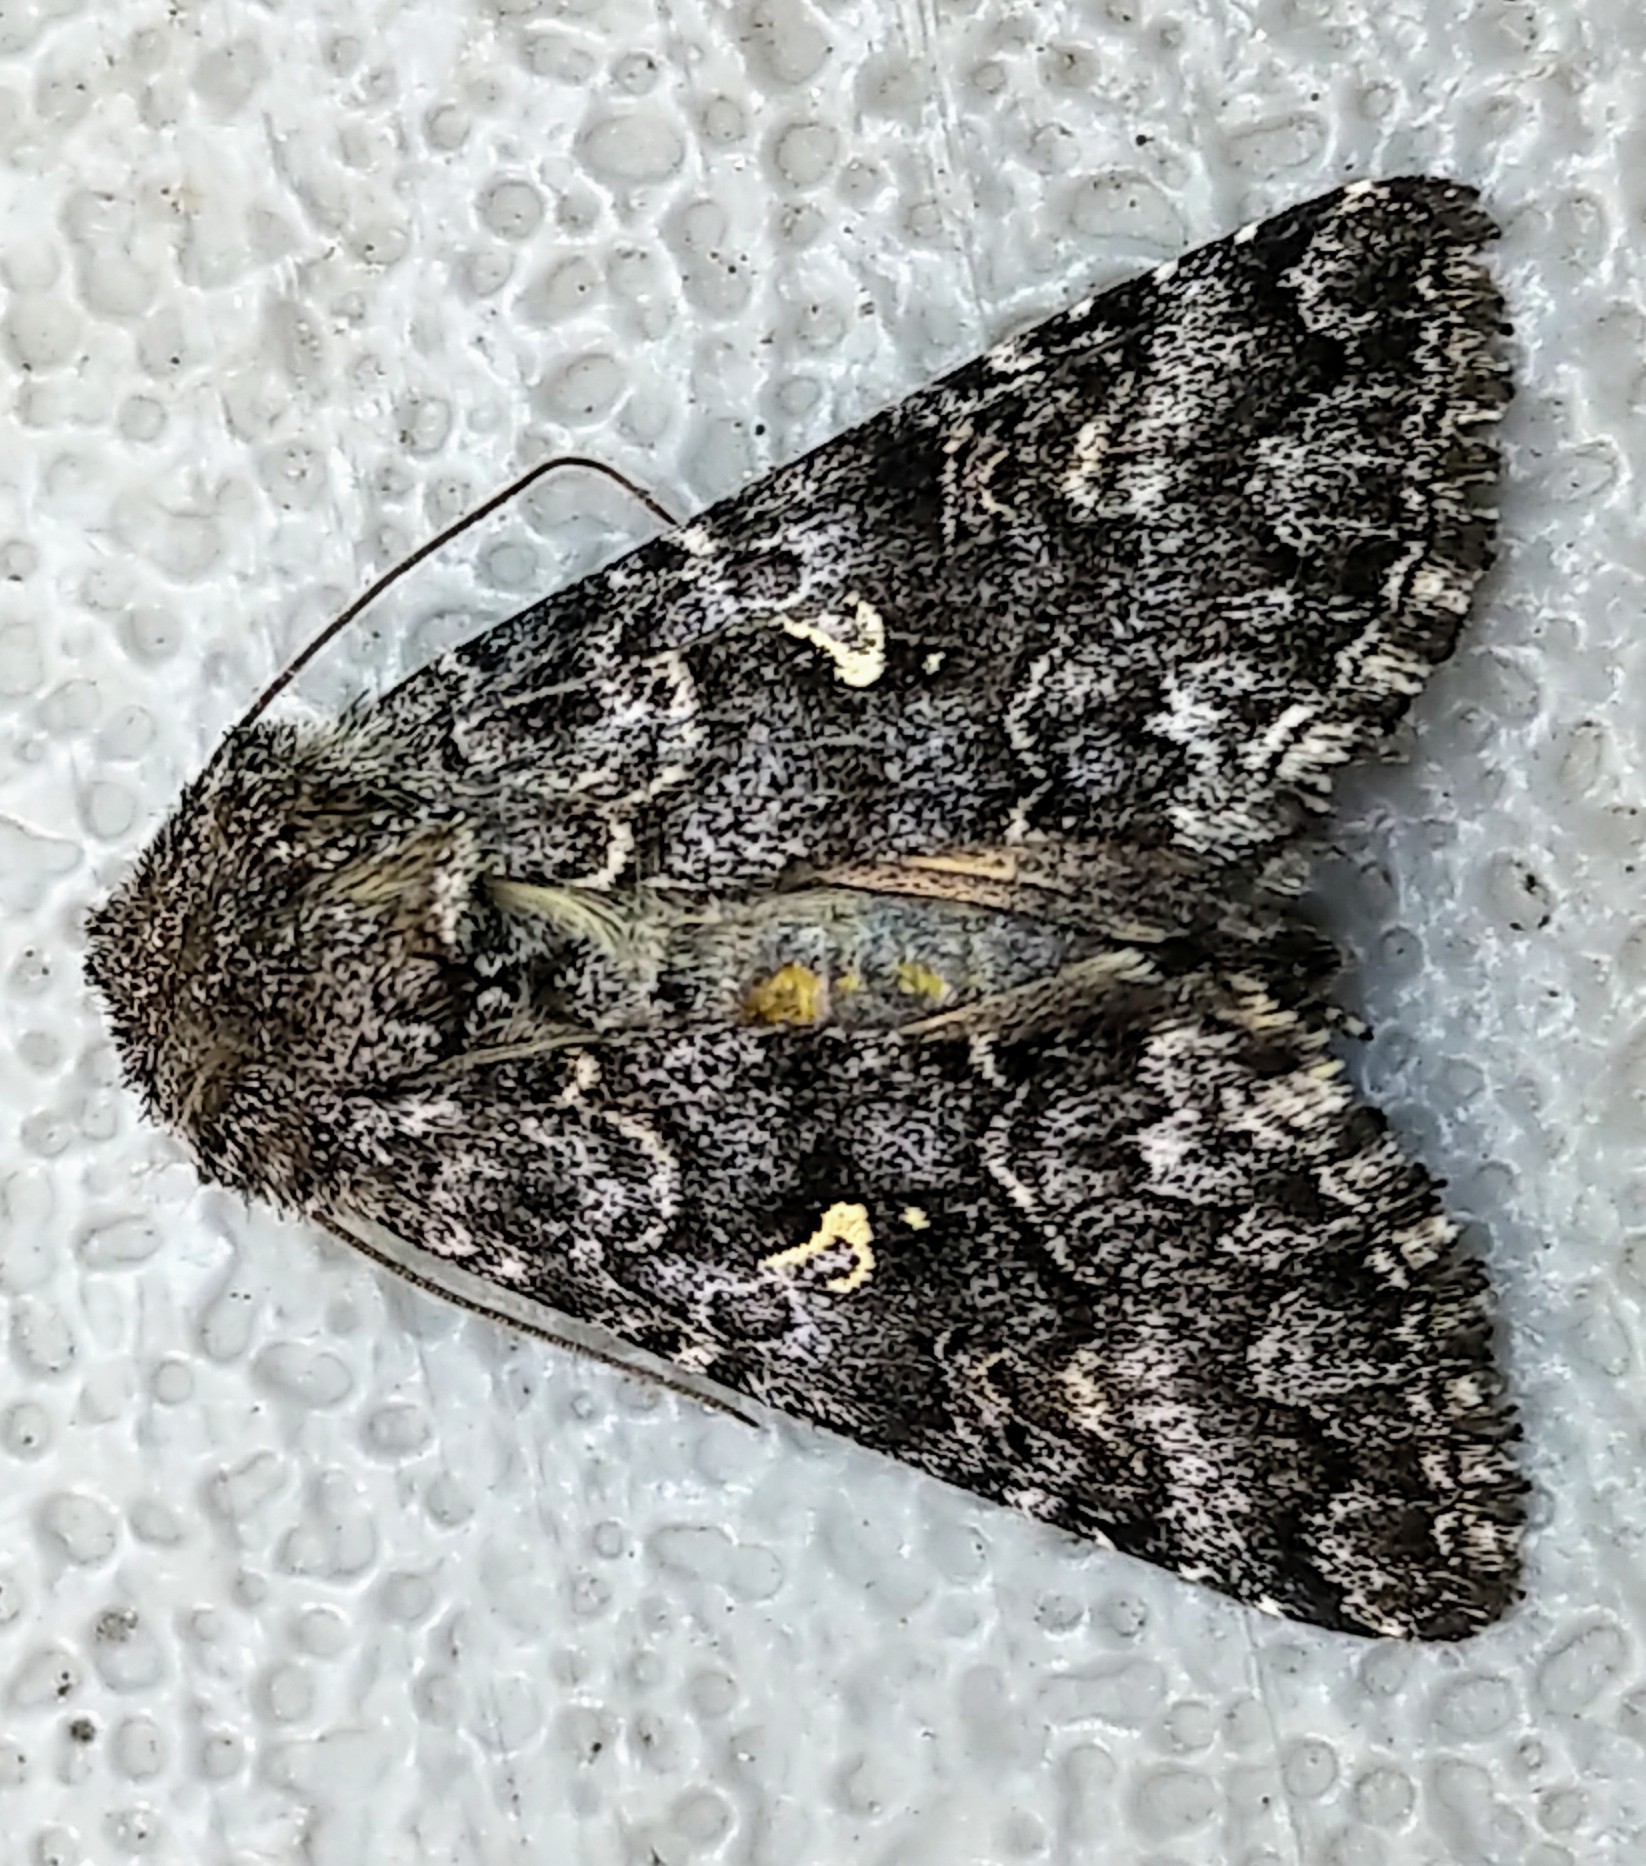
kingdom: Animalia
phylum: Arthropoda
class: Insecta
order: Lepidoptera
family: Noctuidae
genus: Syngrapha
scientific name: Syngrapha angulidens
